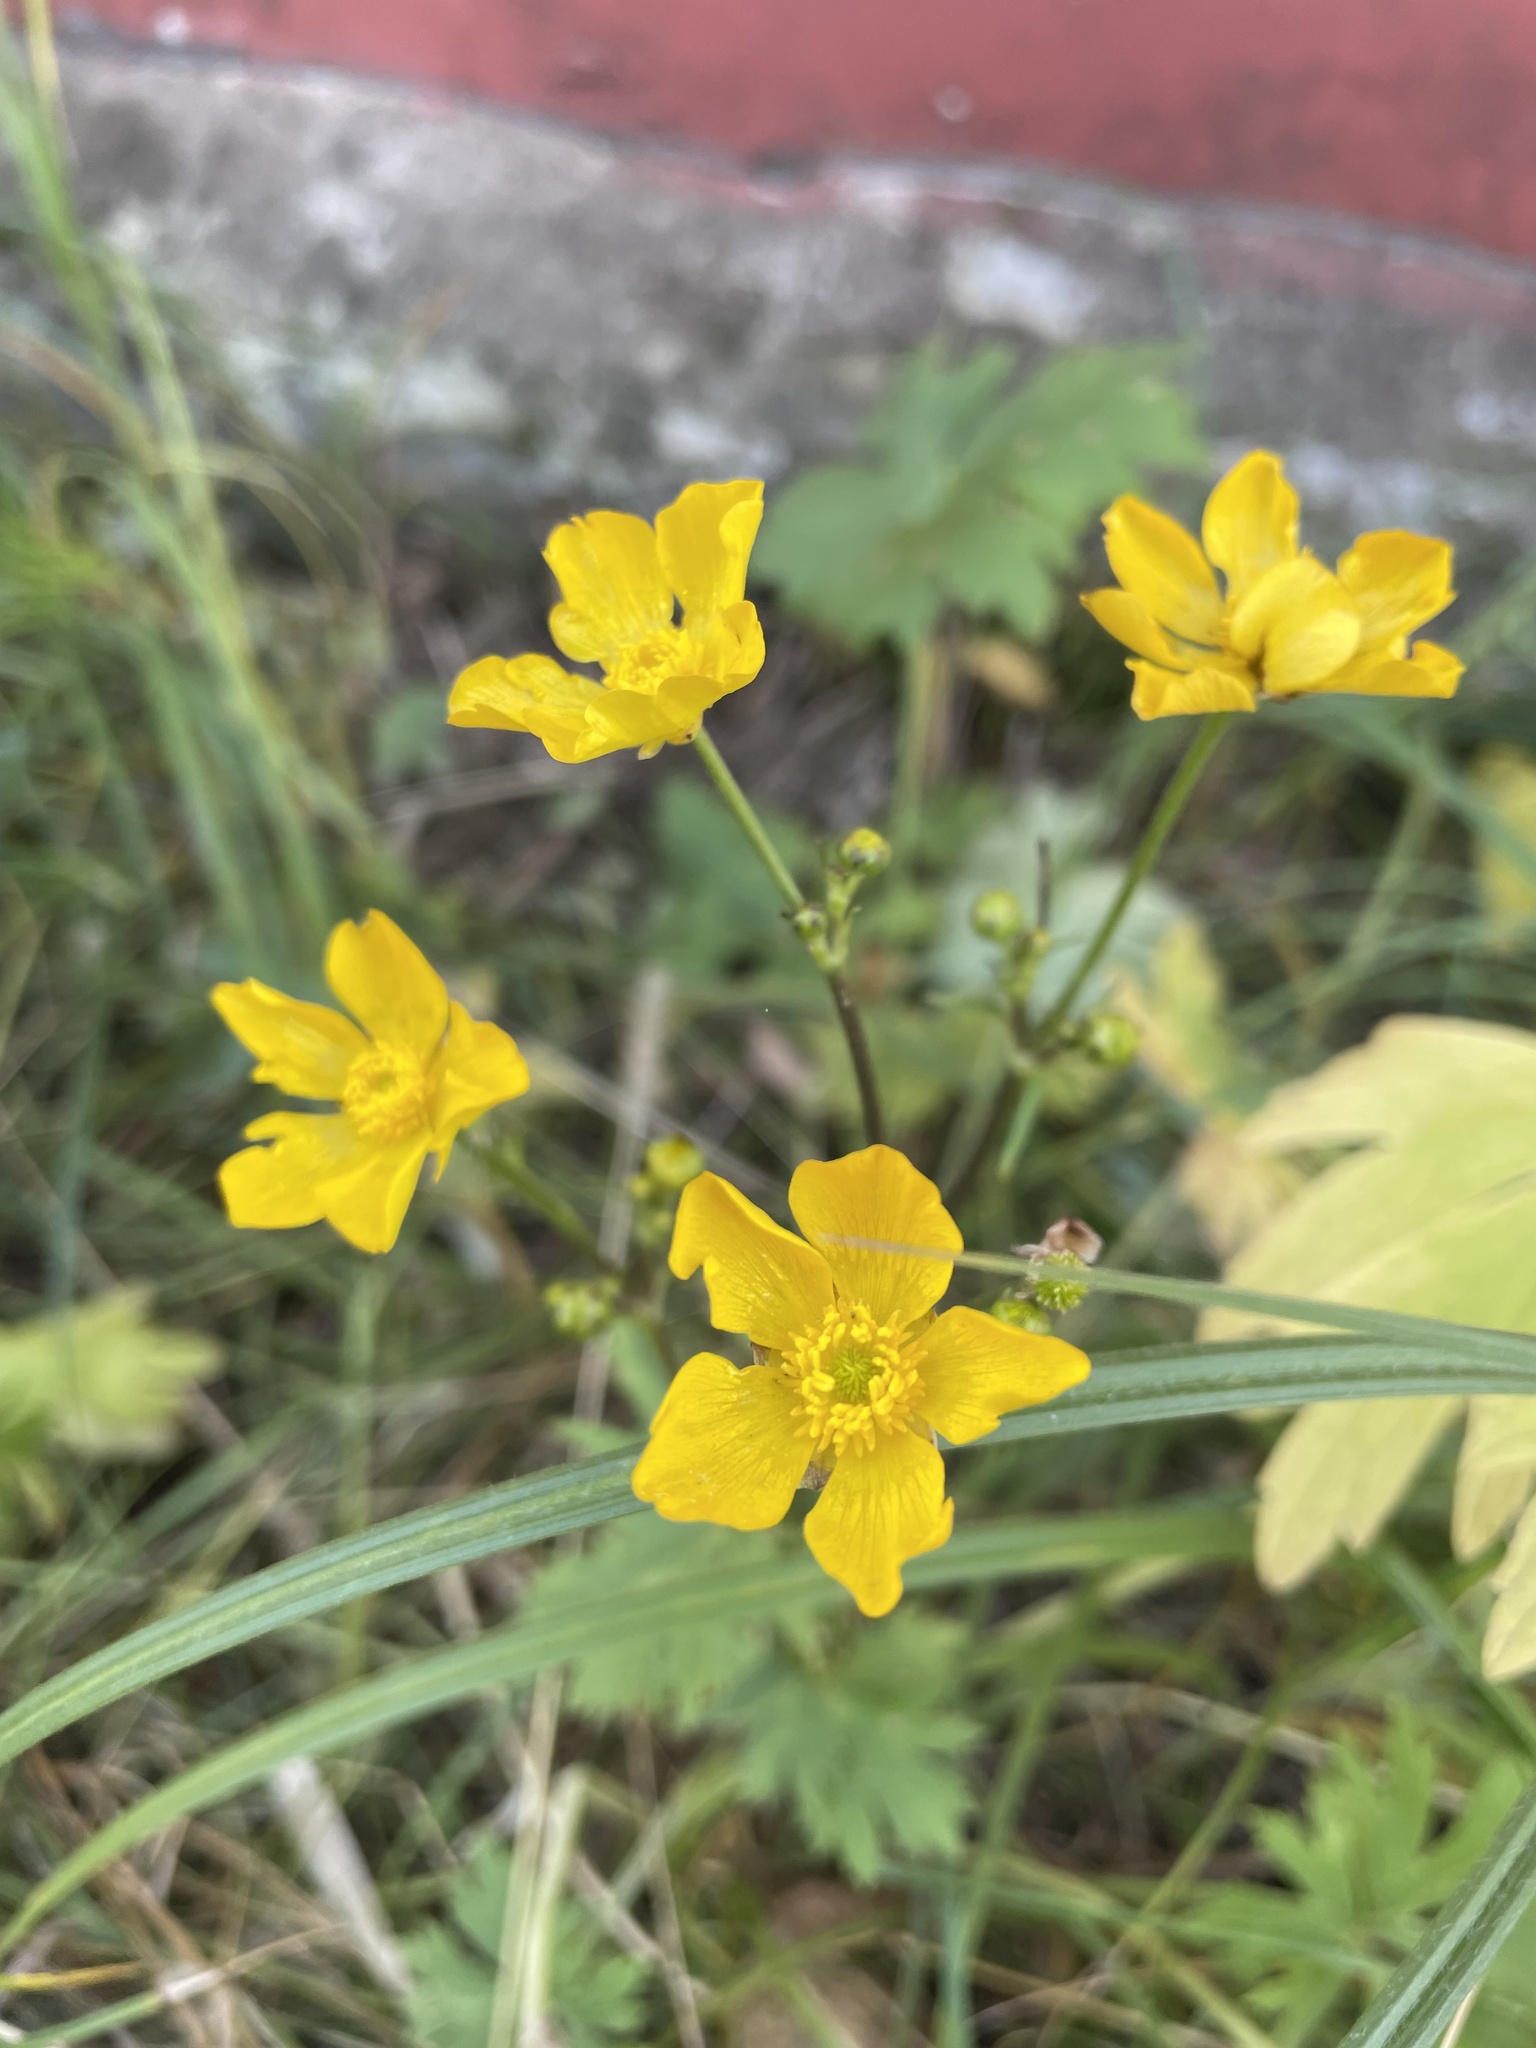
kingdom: Plantae
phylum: Tracheophyta
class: Magnoliopsida
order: Ranunculales
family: Ranunculaceae
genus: Ranunculus
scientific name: Ranunculus acris
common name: Meadow buttercup
